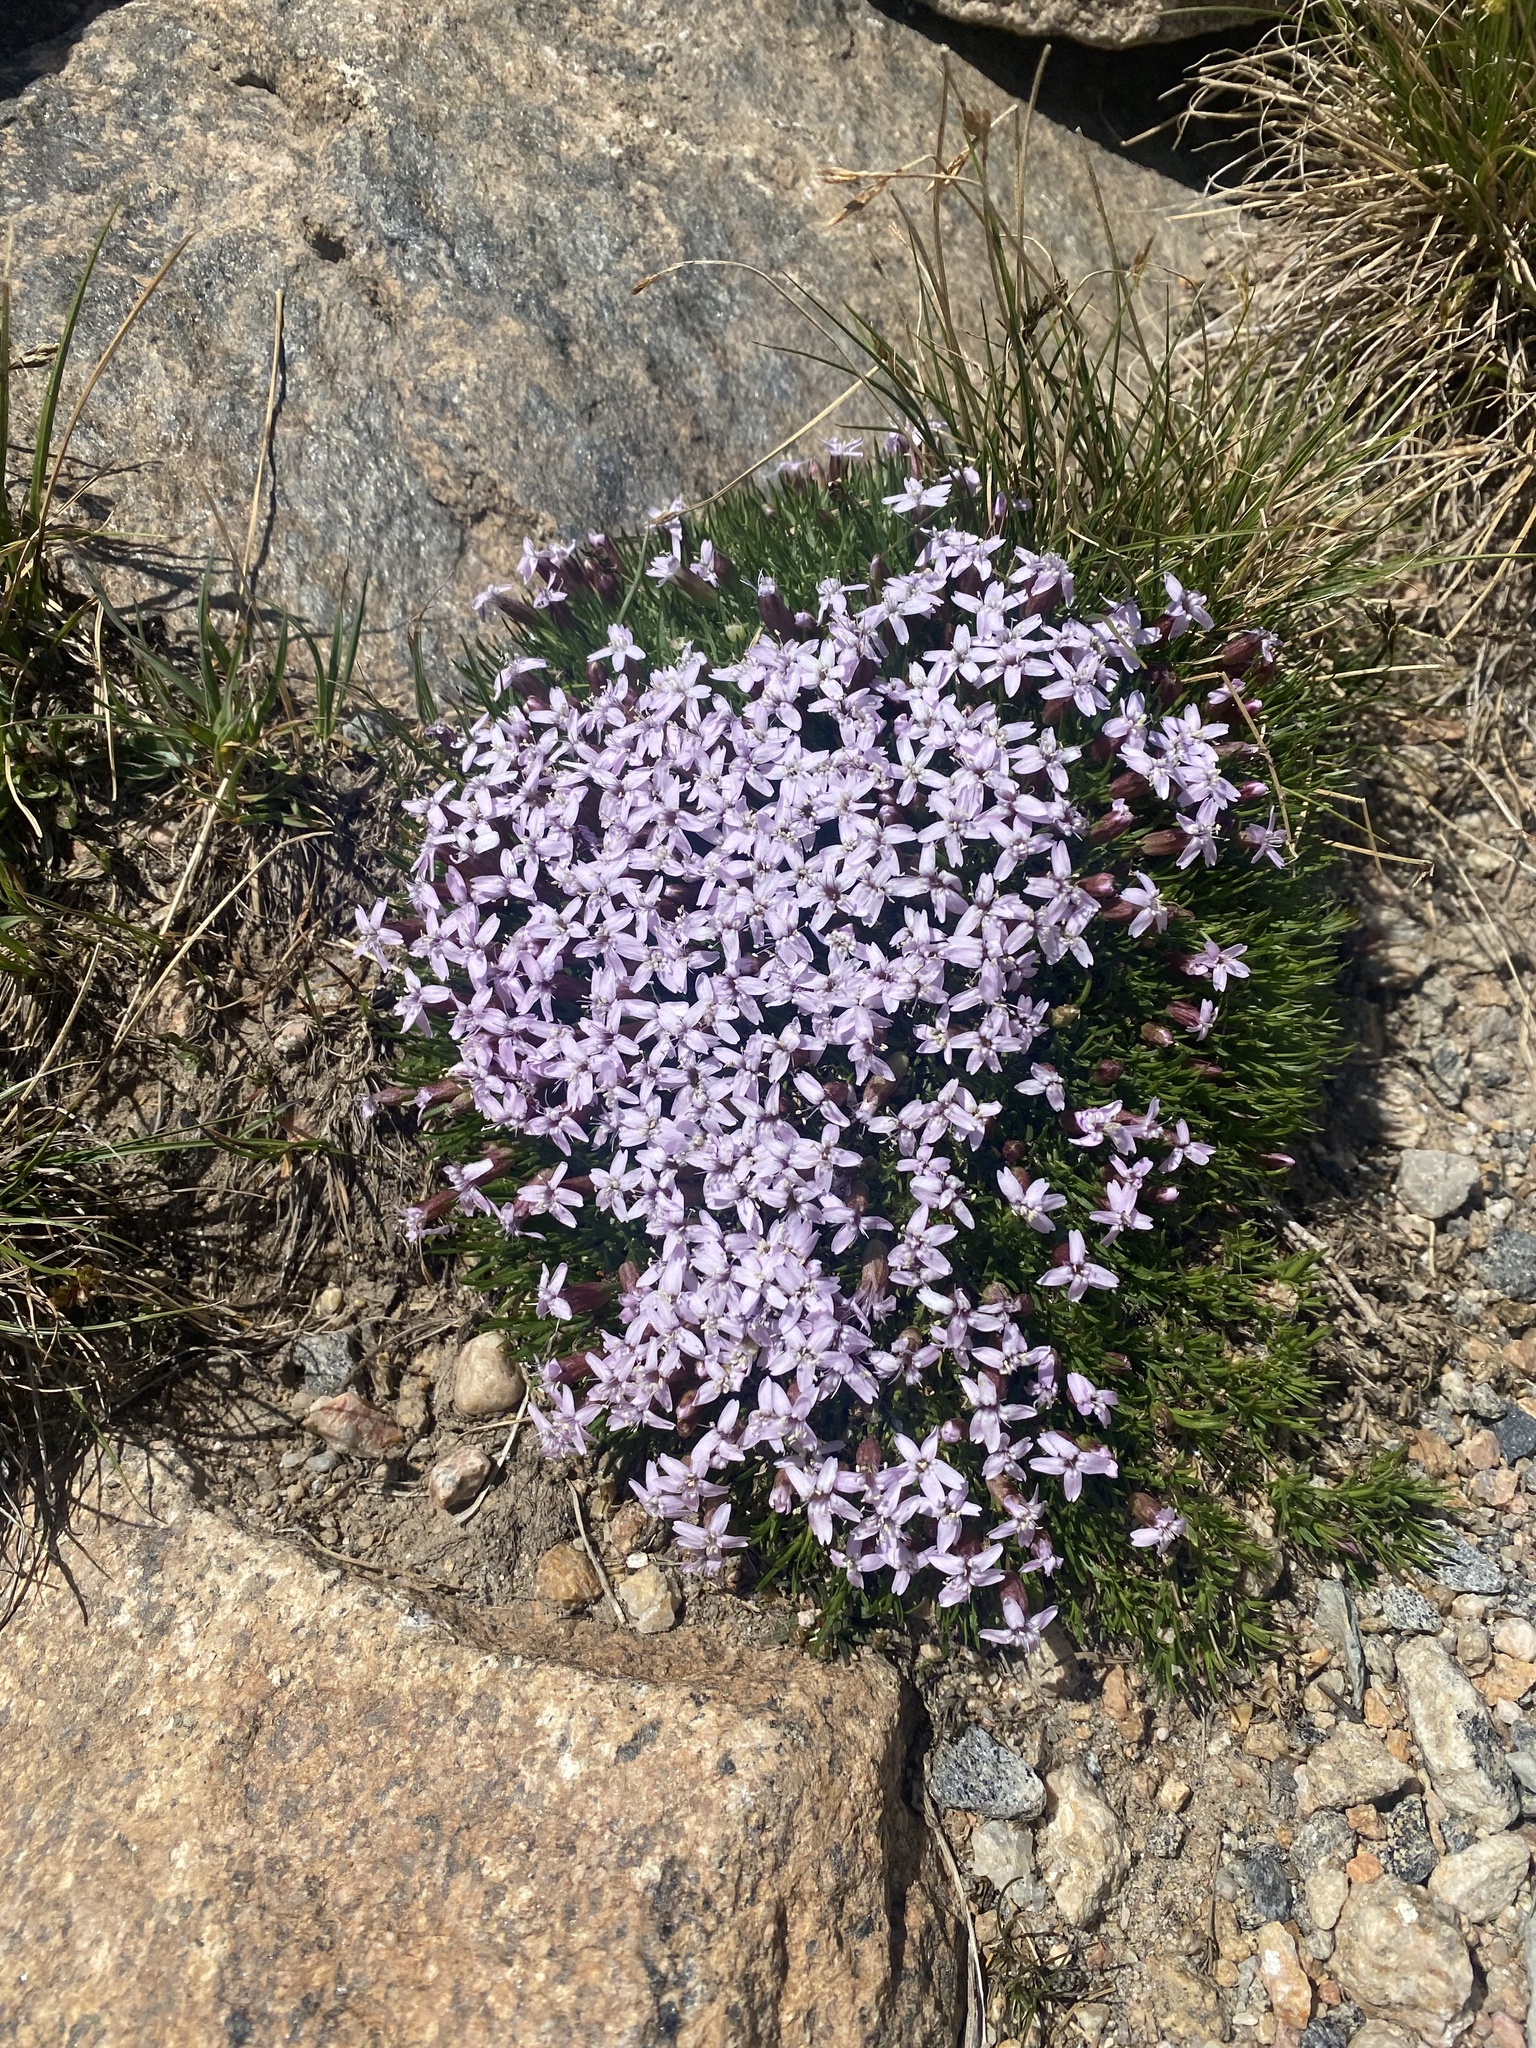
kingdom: Plantae
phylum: Tracheophyta
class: Magnoliopsida
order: Caryophyllales
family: Caryophyllaceae
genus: Silene
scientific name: Silene acaulis
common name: Moss campion
